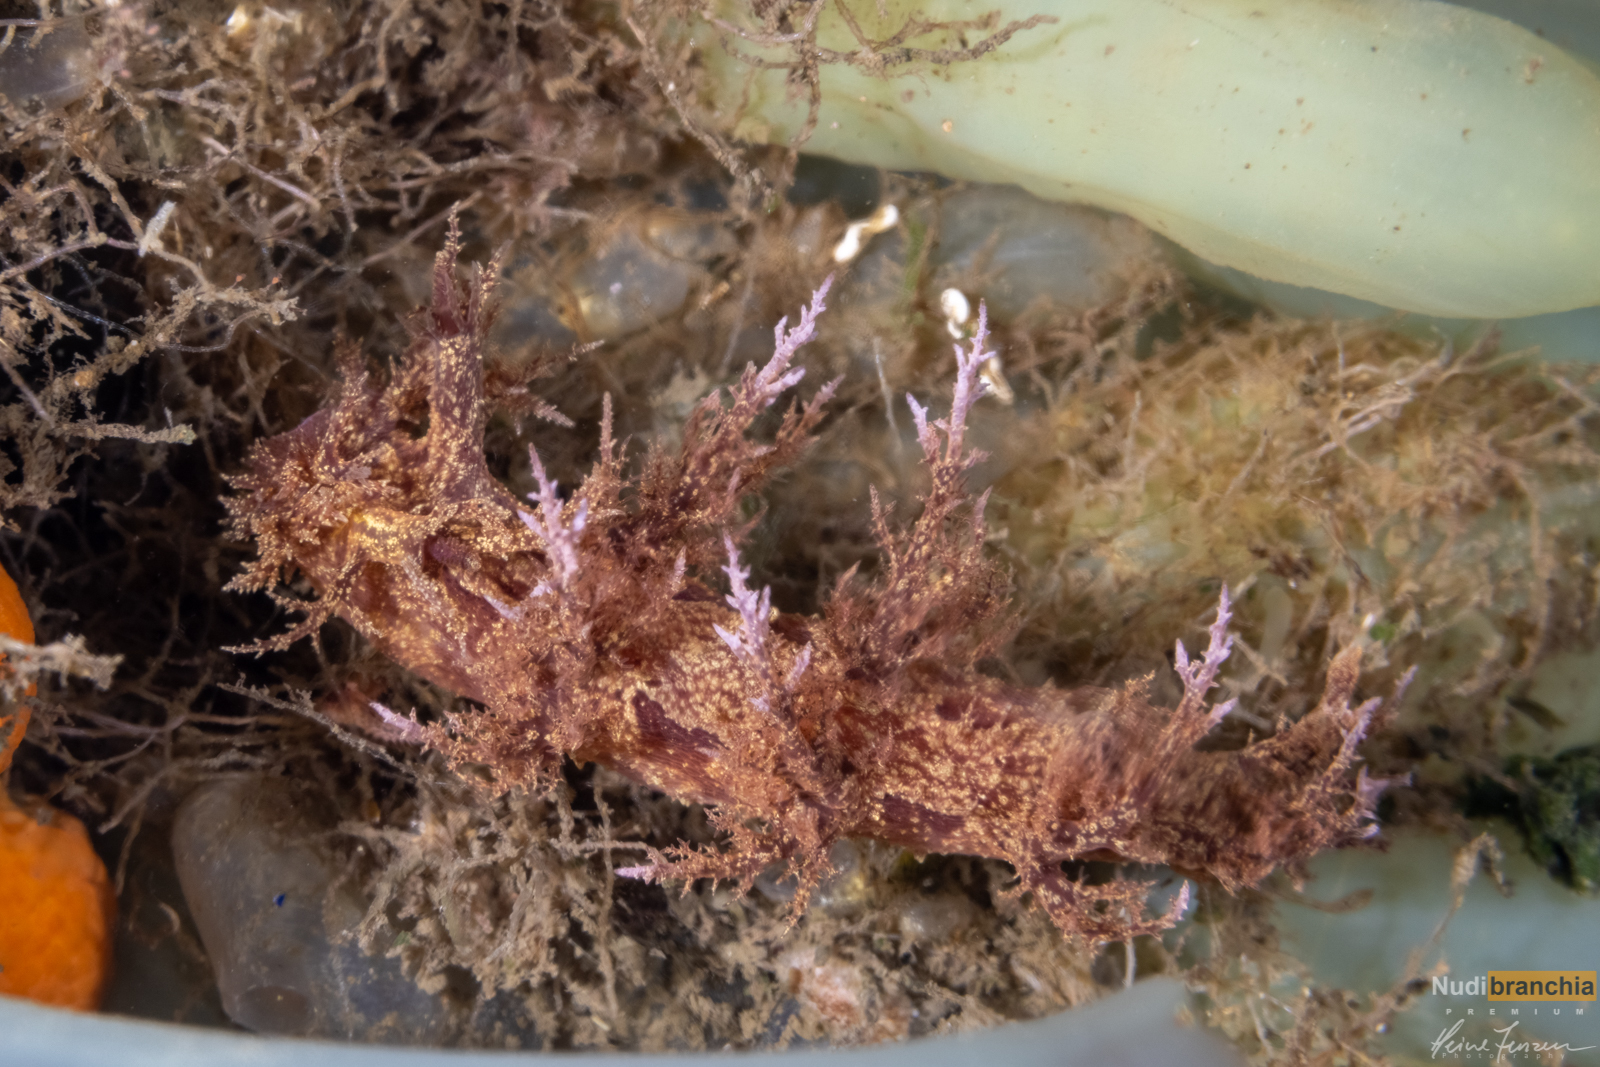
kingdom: Animalia
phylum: Mollusca
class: Gastropoda
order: Nudibranchia
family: Dendronotidae
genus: Dendronotus
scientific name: Dendronotus europaeus
